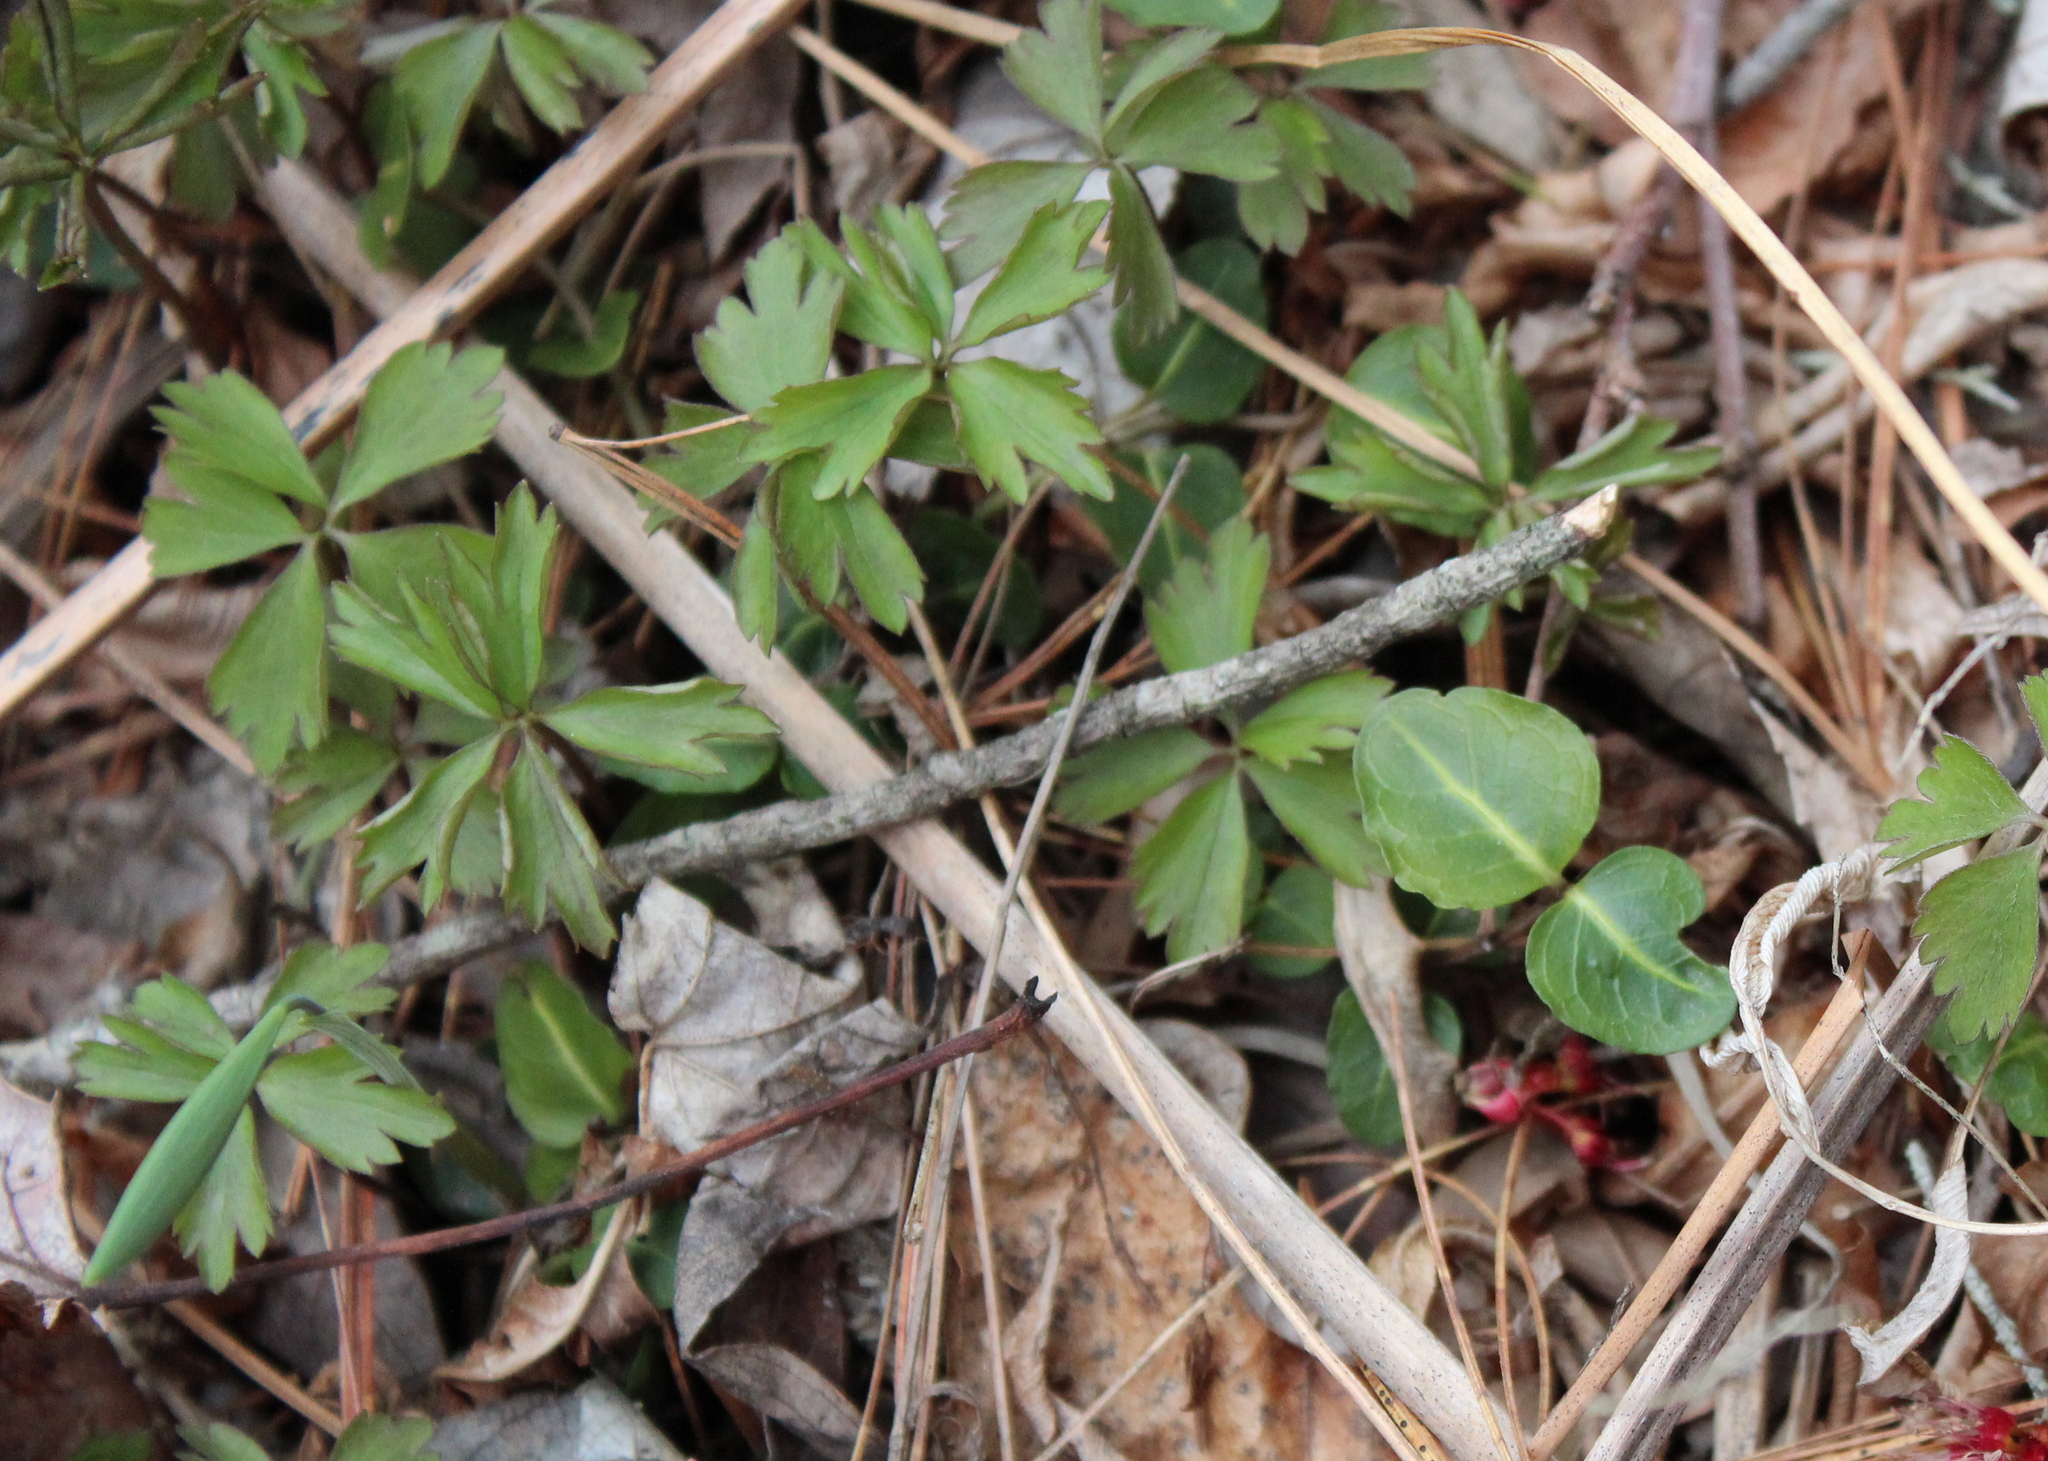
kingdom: Plantae
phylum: Tracheophyta
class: Magnoliopsida
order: Ranunculales
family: Ranunculaceae
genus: Anemone
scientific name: Anemone quinquefolia
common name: Wood anemone
